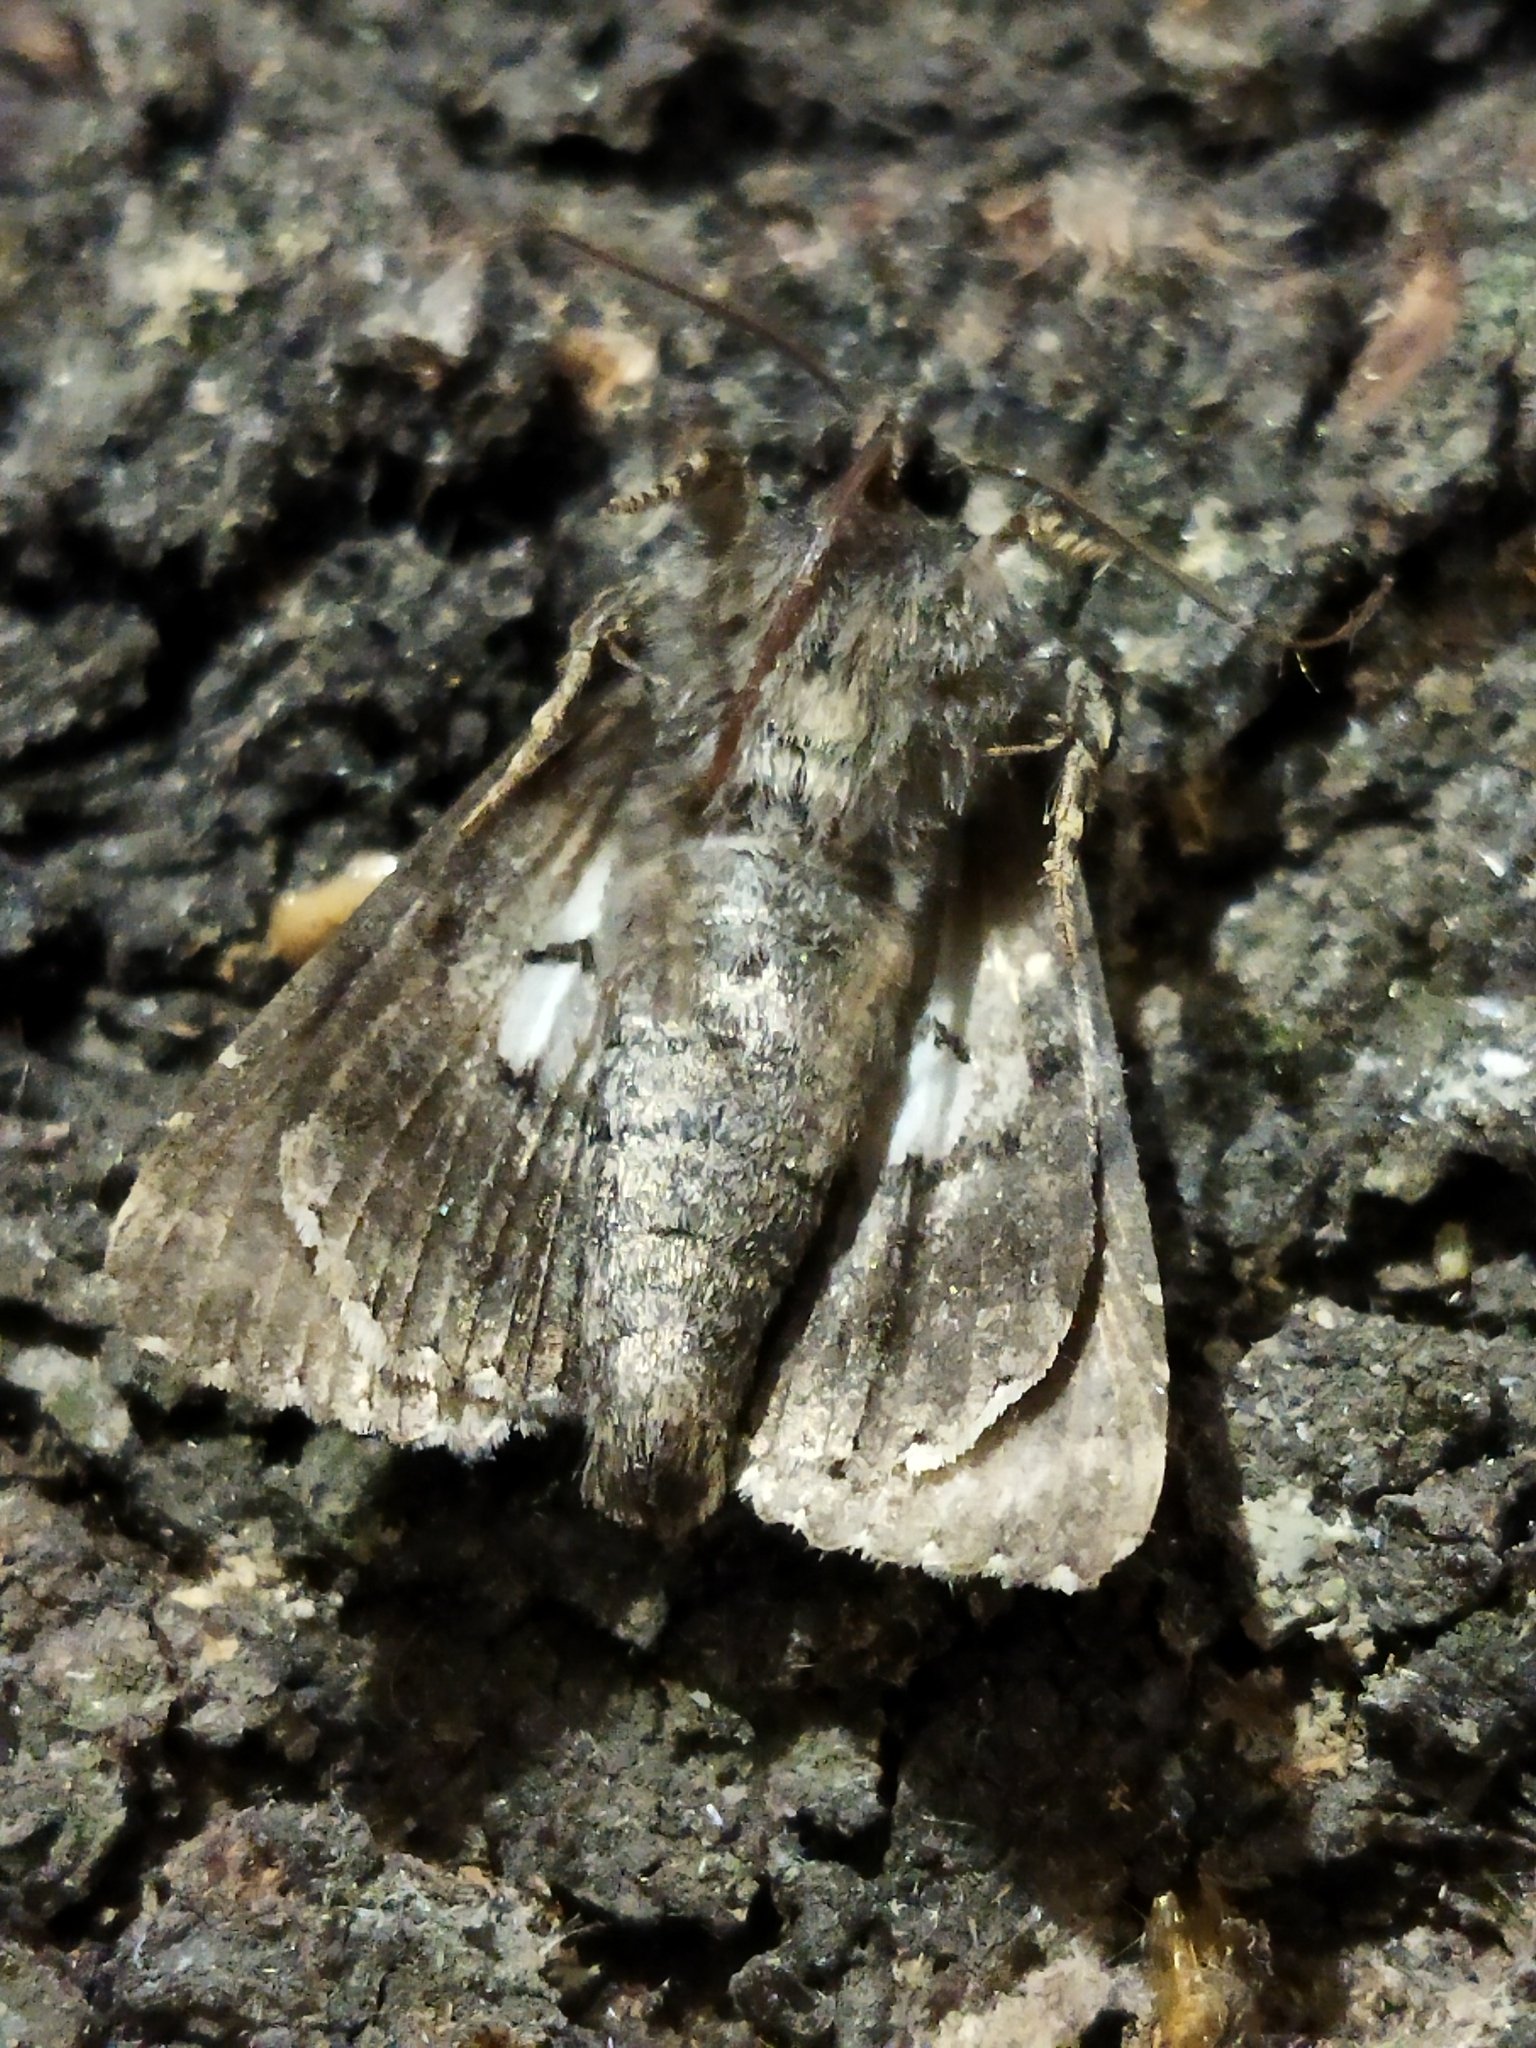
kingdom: Animalia
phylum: Arthropoda
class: Insecta
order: Lepidoptera
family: Erebidae
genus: Catephia
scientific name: Catephia alchymista
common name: Alchymist
